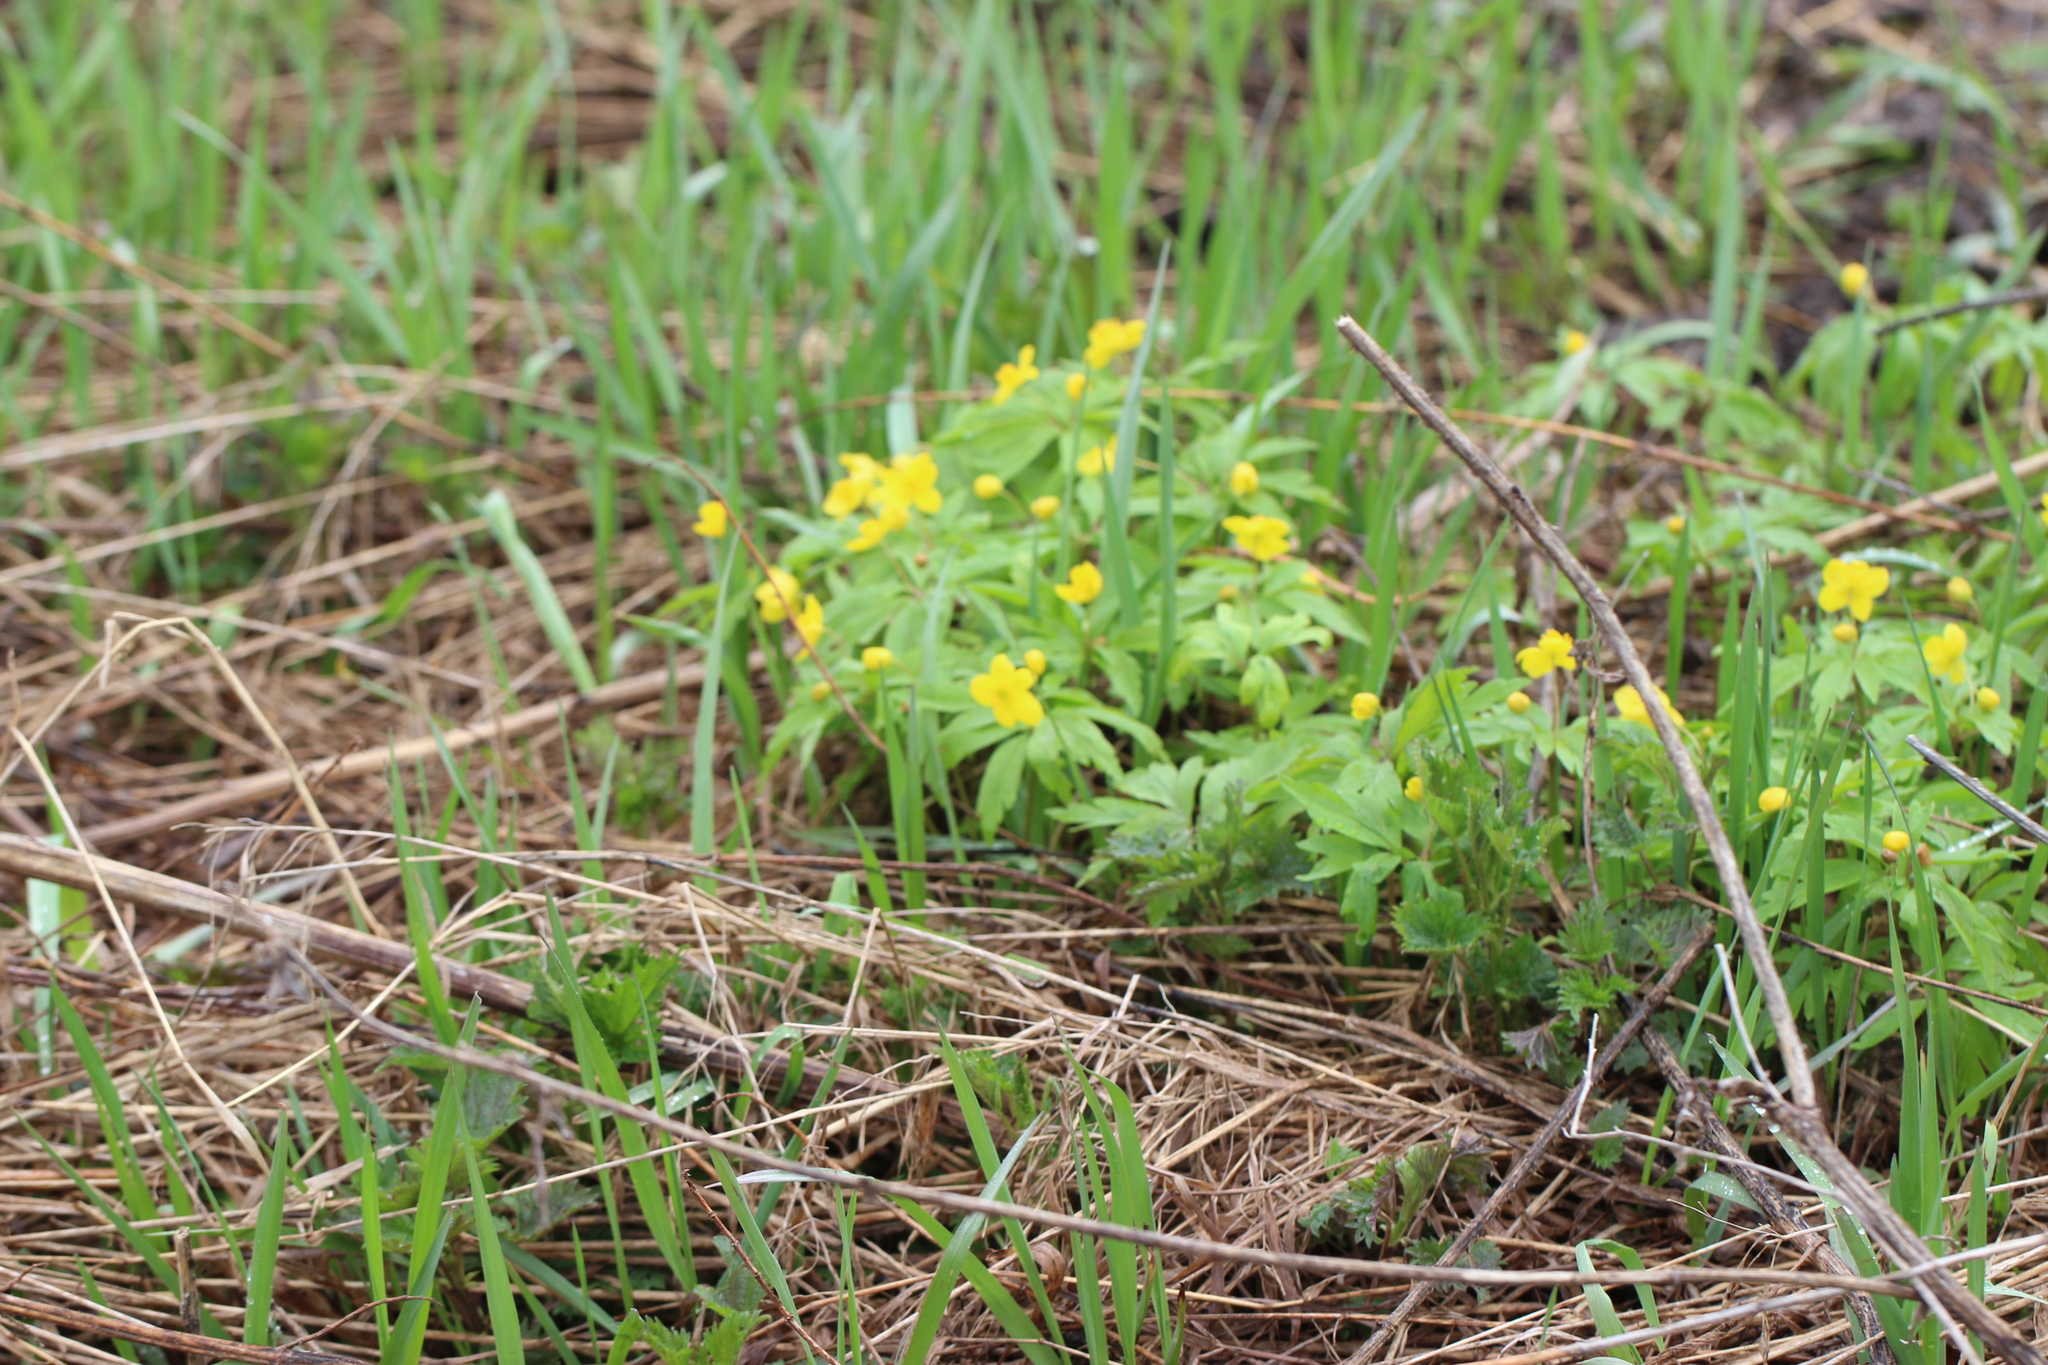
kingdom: Plantae
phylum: Tracheophyta
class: Magnoliopsida
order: Ranunculales
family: Ranunculaceae
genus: Anemone
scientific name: Anemone ranunculoides
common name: Yellow anemone
